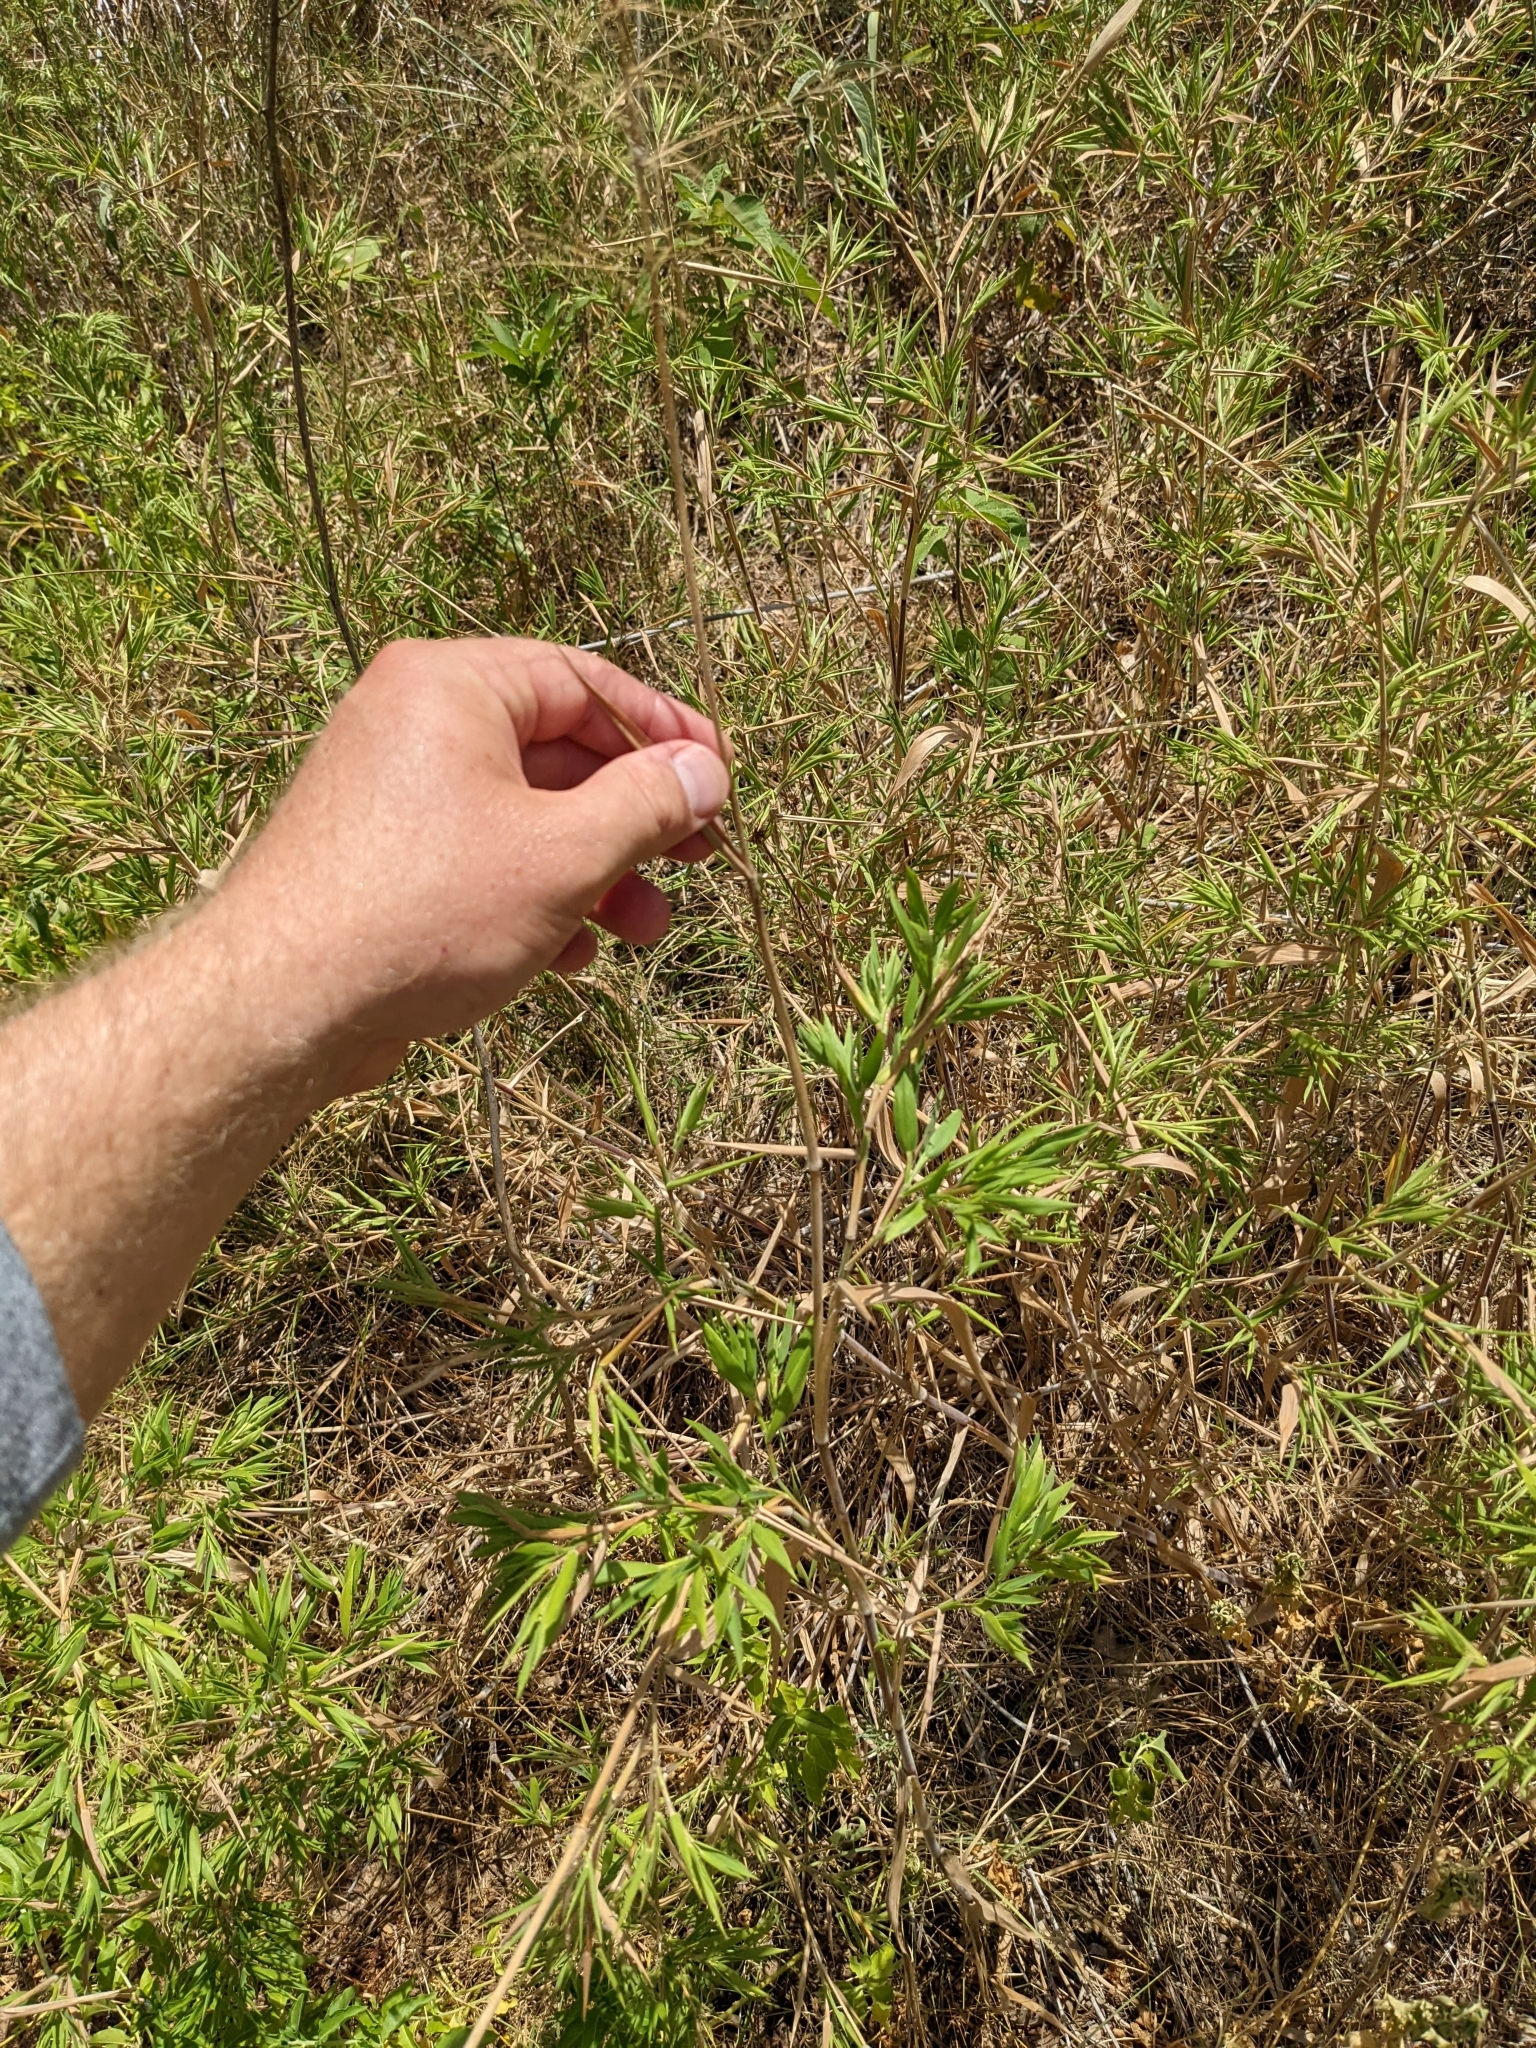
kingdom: Plantae
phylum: Tracheophyta
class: Liliopsida
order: Poales
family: Poaceae
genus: Dichanthelium
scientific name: Dichanthelium scoparium
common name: Velvety panic grass
